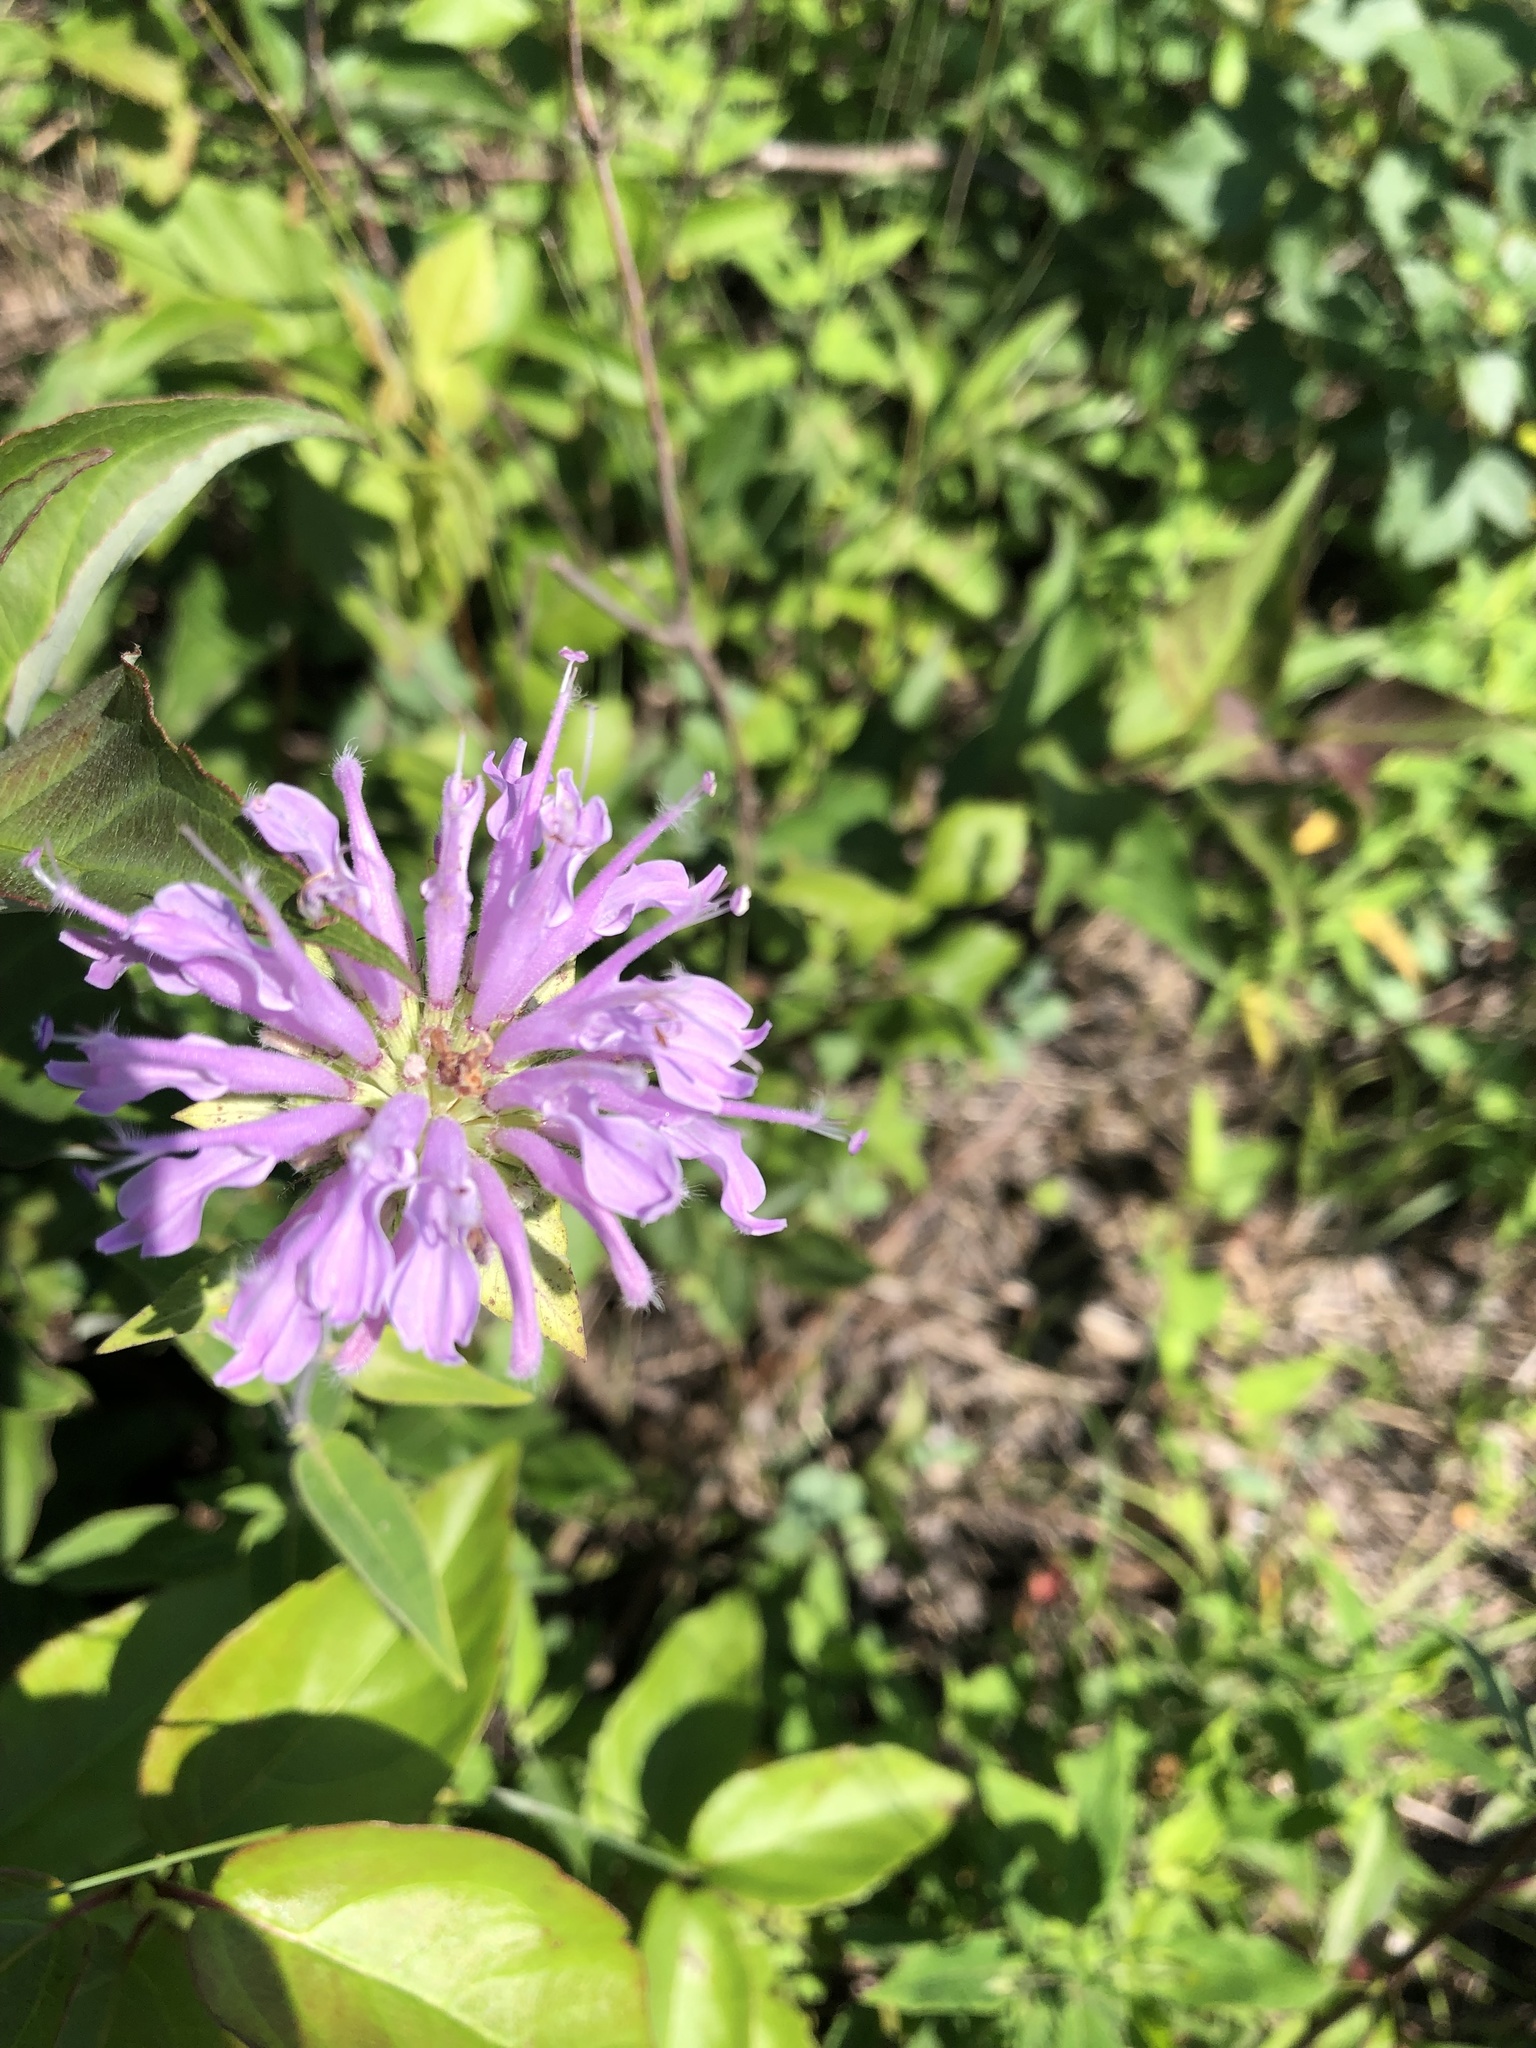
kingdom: Plantae
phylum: Tracheophyta
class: Magnoliopsida
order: Lamiales
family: Lamiaceae
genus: Monarda
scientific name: Monarda fistulosa
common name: Purple beebalm
